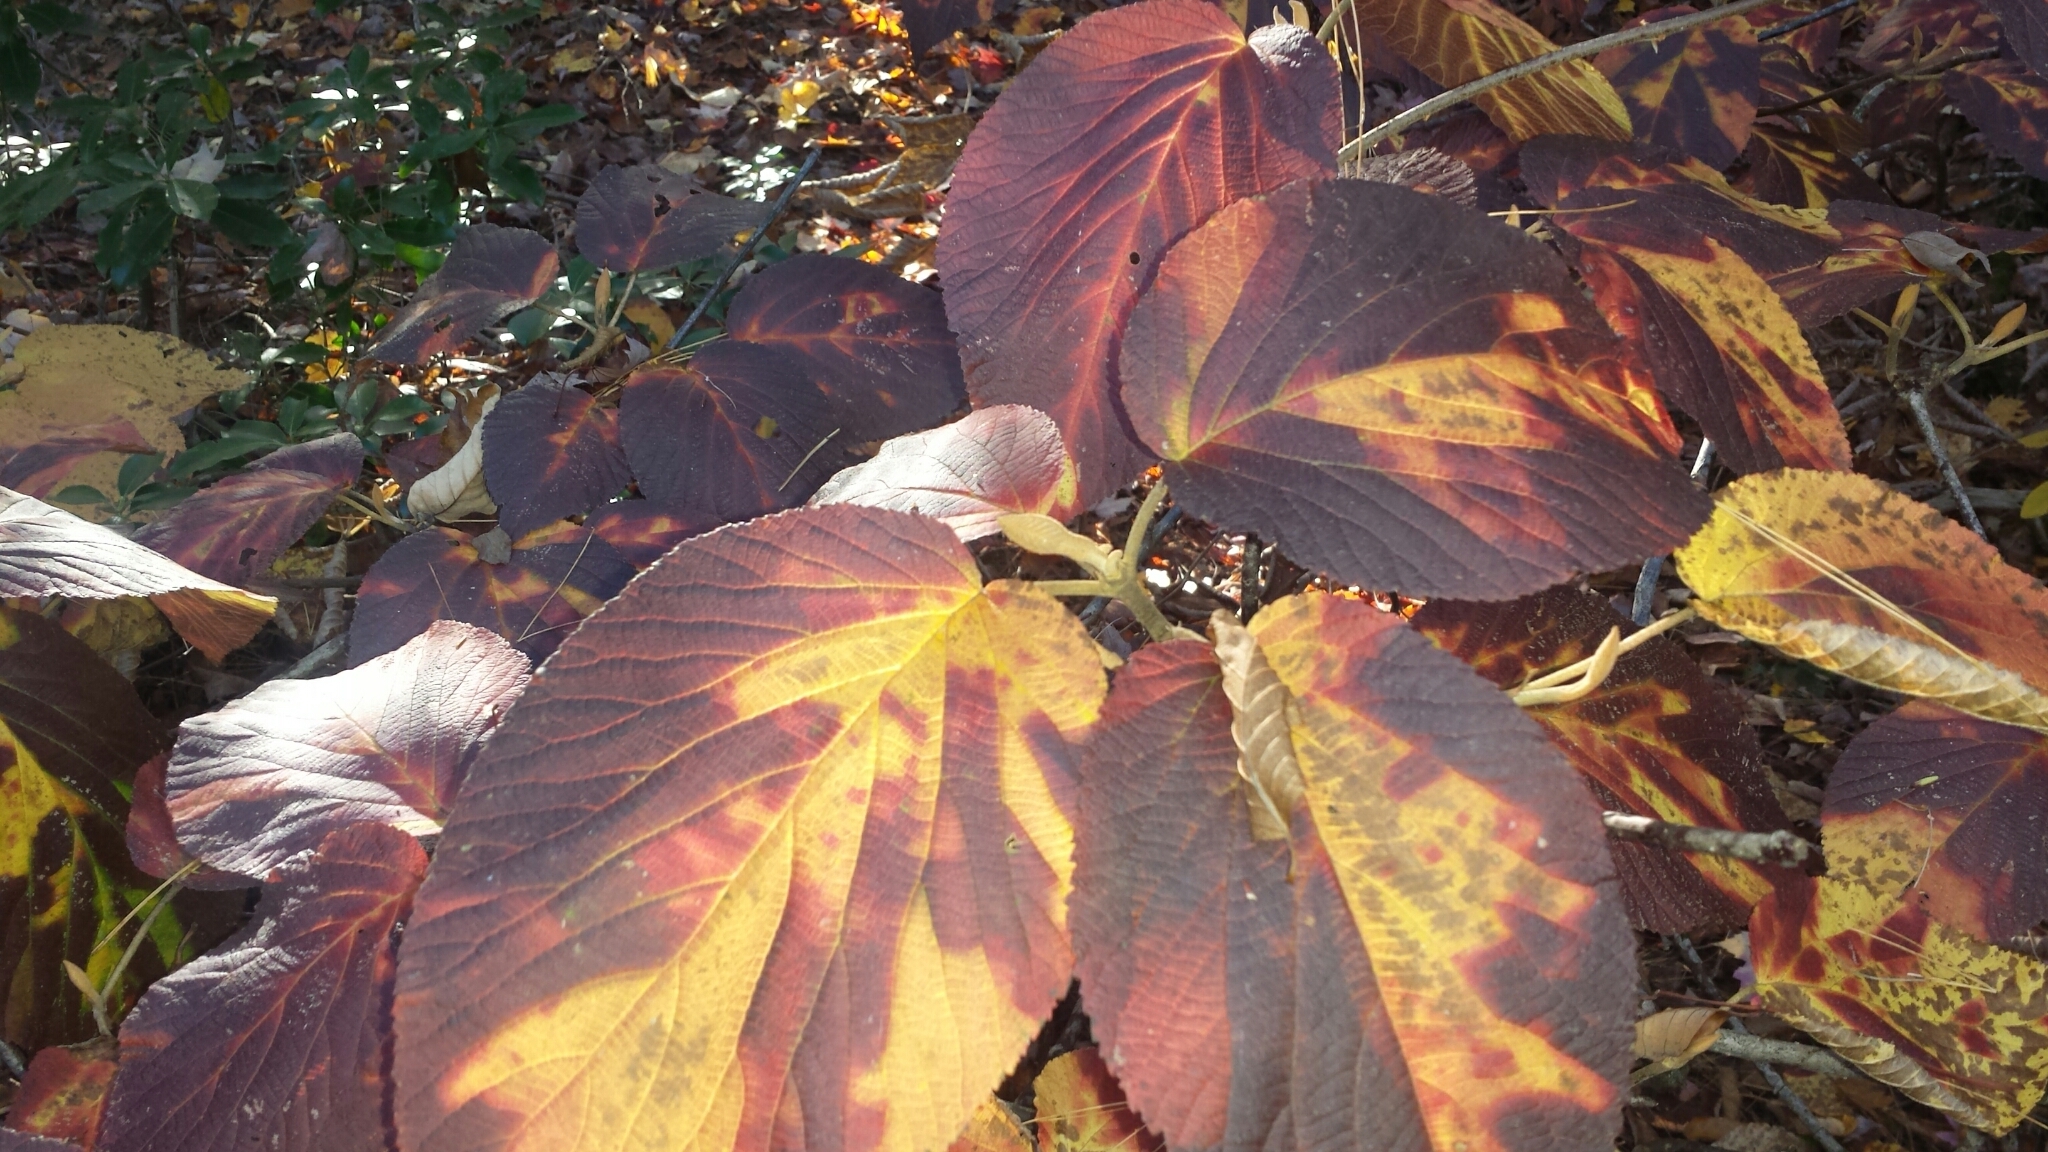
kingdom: Plantae
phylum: Tracheophyta
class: Magnoliopsida
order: Dipsacales
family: Viburnaceae
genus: Viburnum
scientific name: Viburnum lantanoides
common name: Hobblebush
